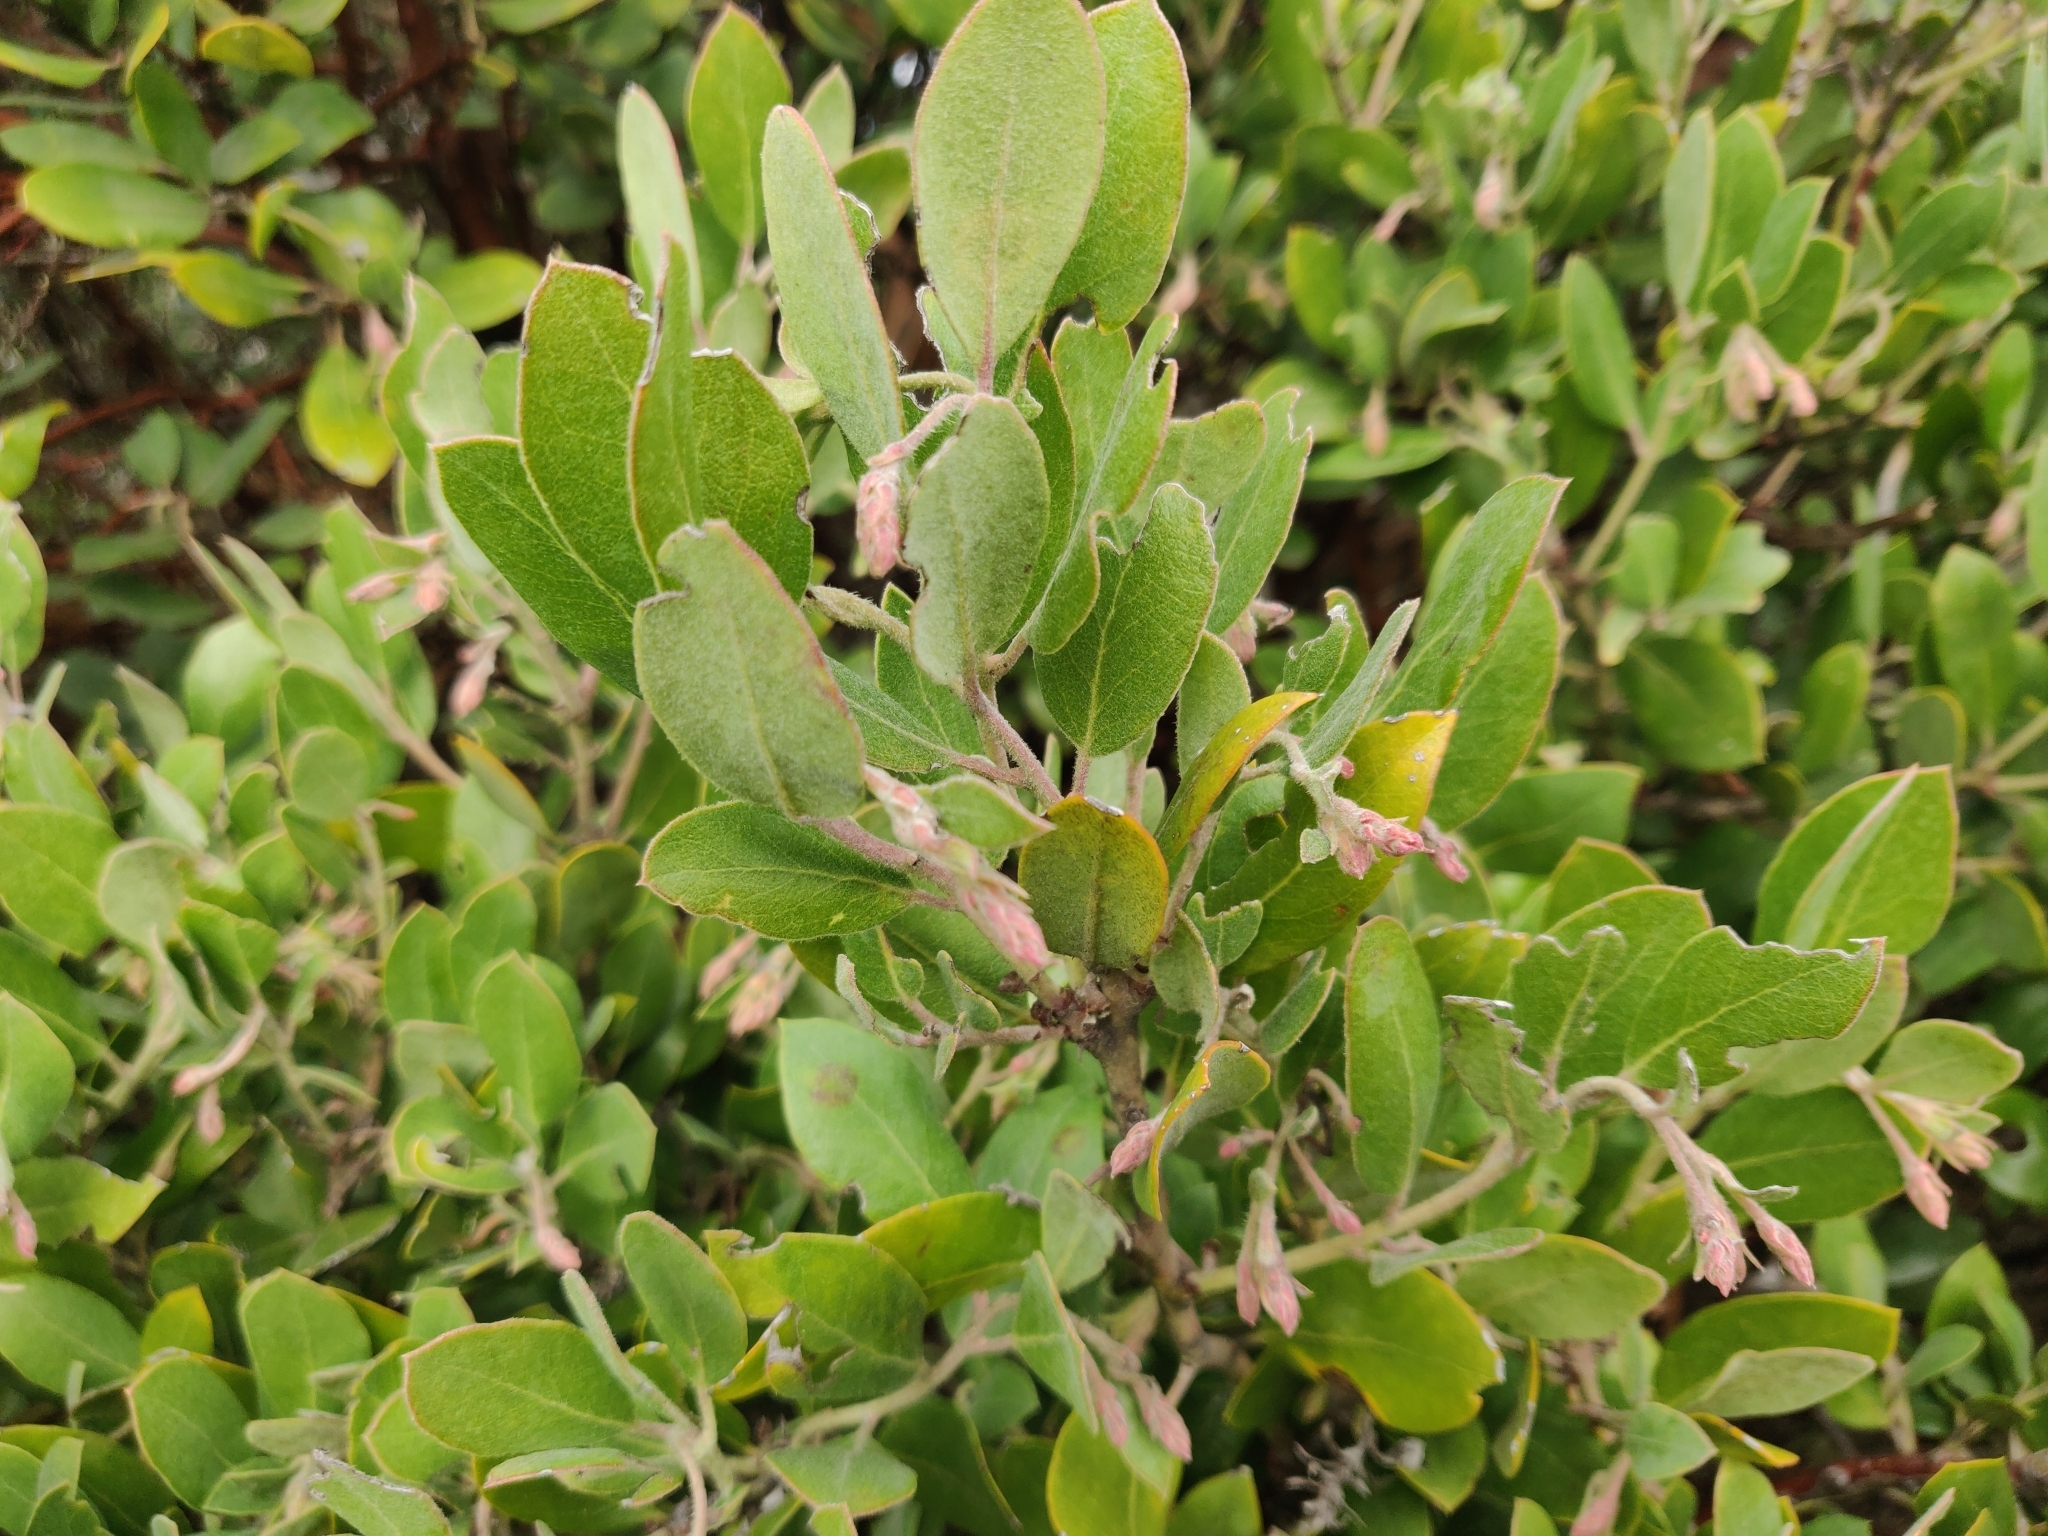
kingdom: Plantae
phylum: Tracheophyta
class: Magnoliopsida
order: Ericales
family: Ericaceae
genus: Arctostaphylos
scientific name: Arctostaphylos crustacea
